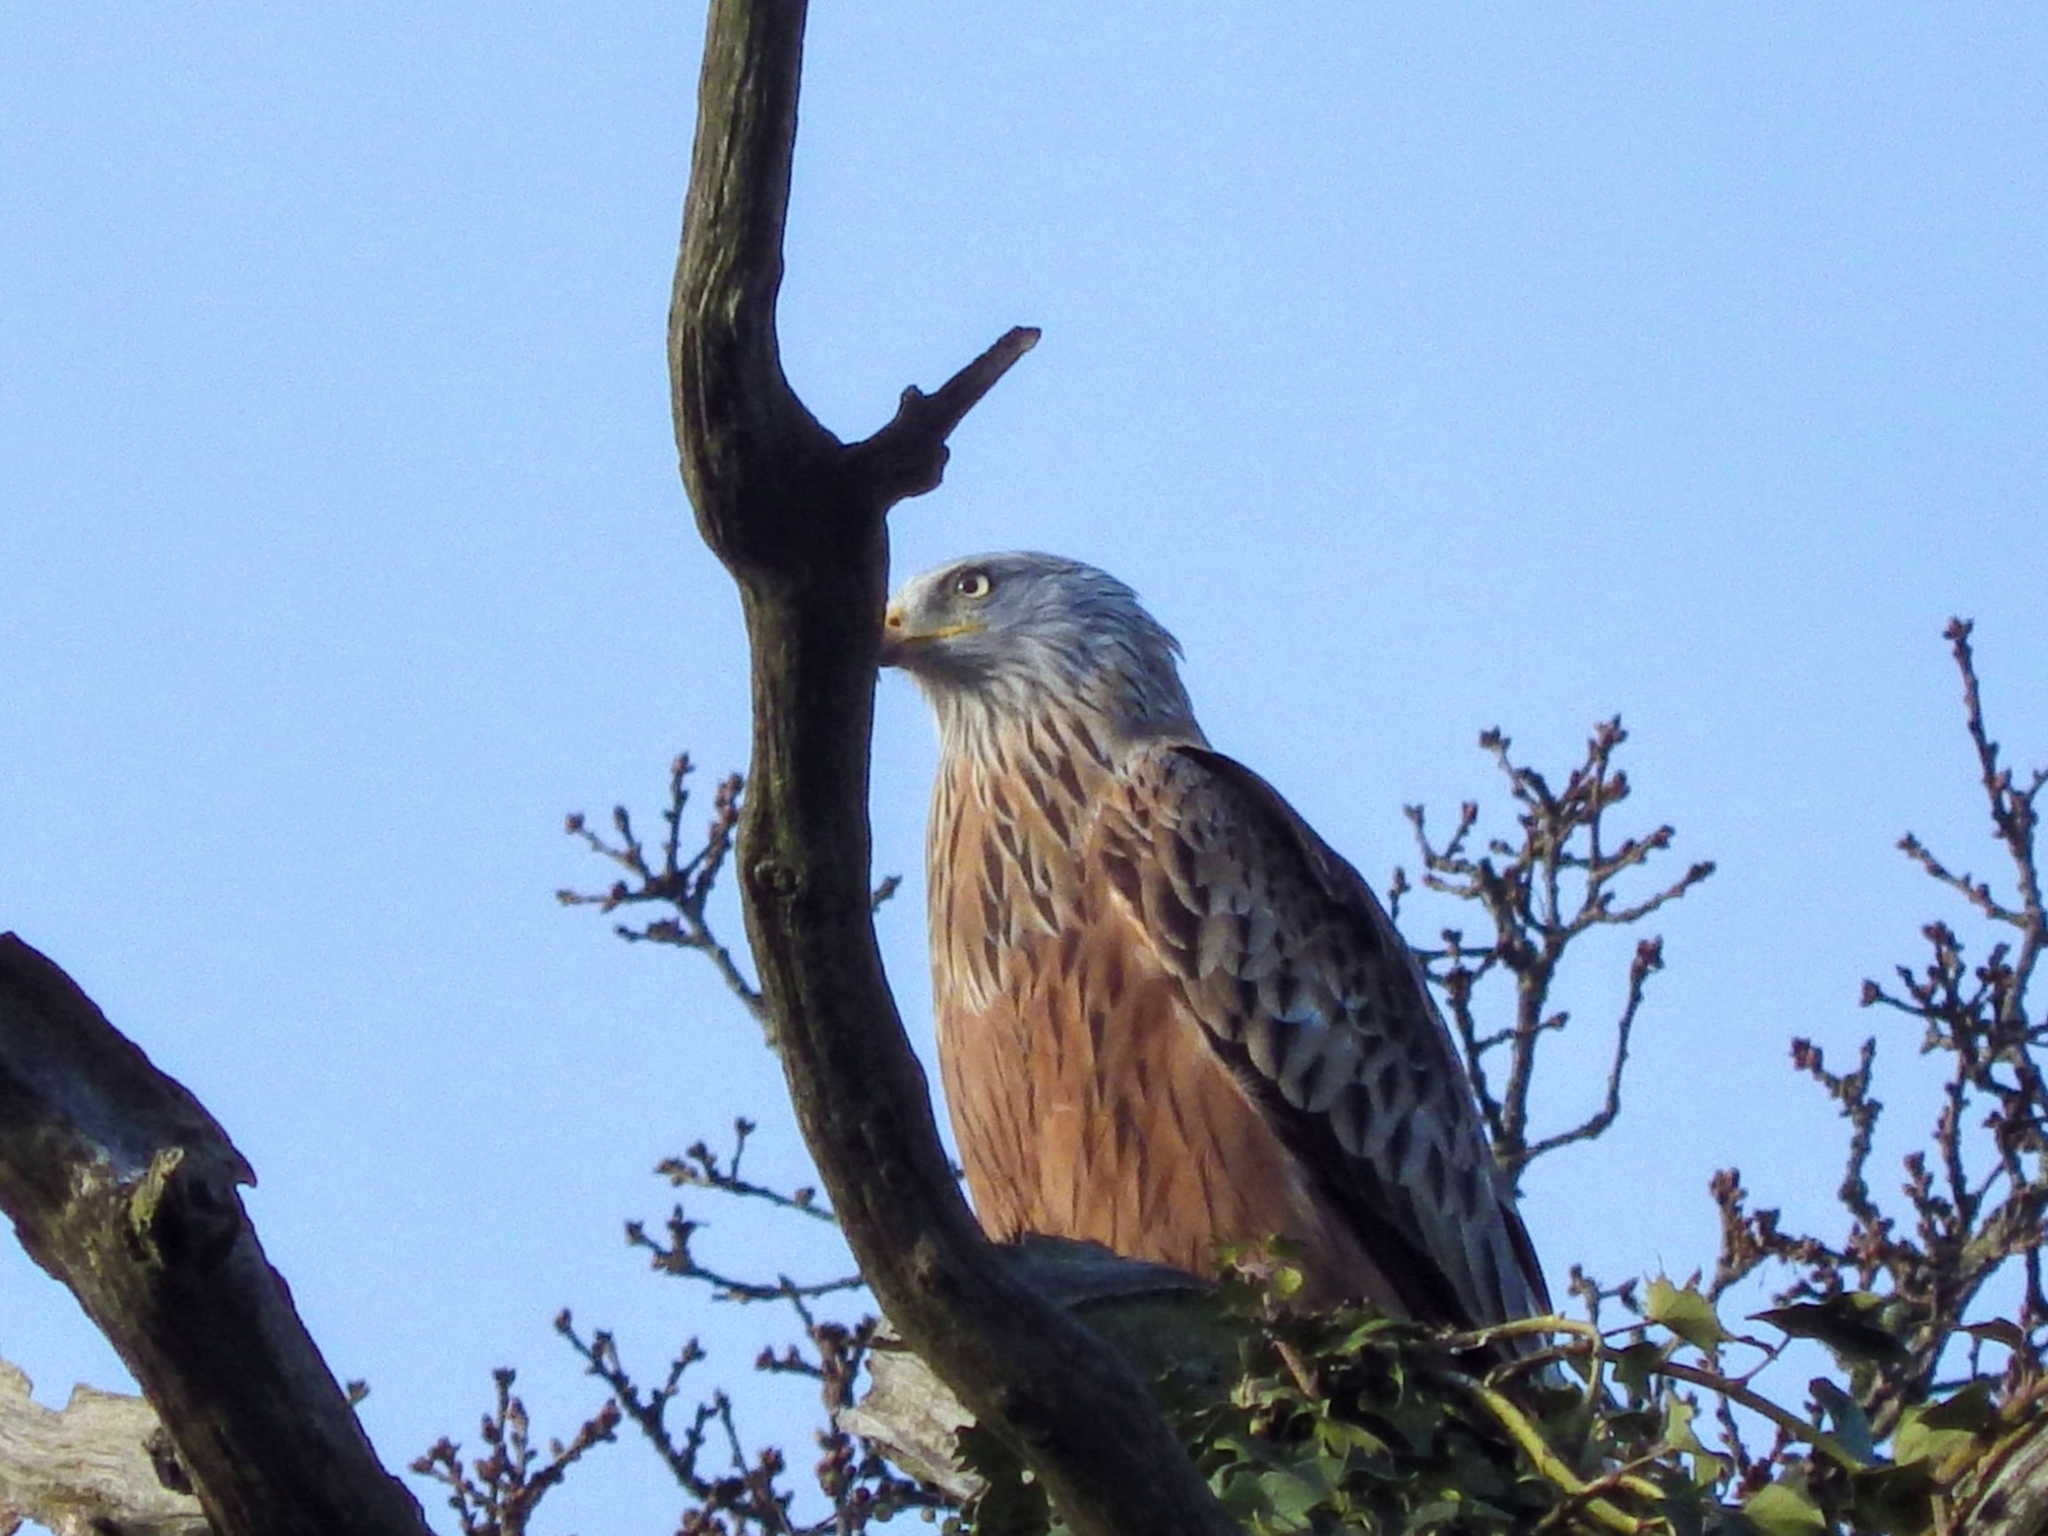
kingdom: Animalia
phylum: Chordata
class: Aves
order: Accipitriformes
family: Accipitridae
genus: Milvus
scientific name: Milvus milvus
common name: Red kite
